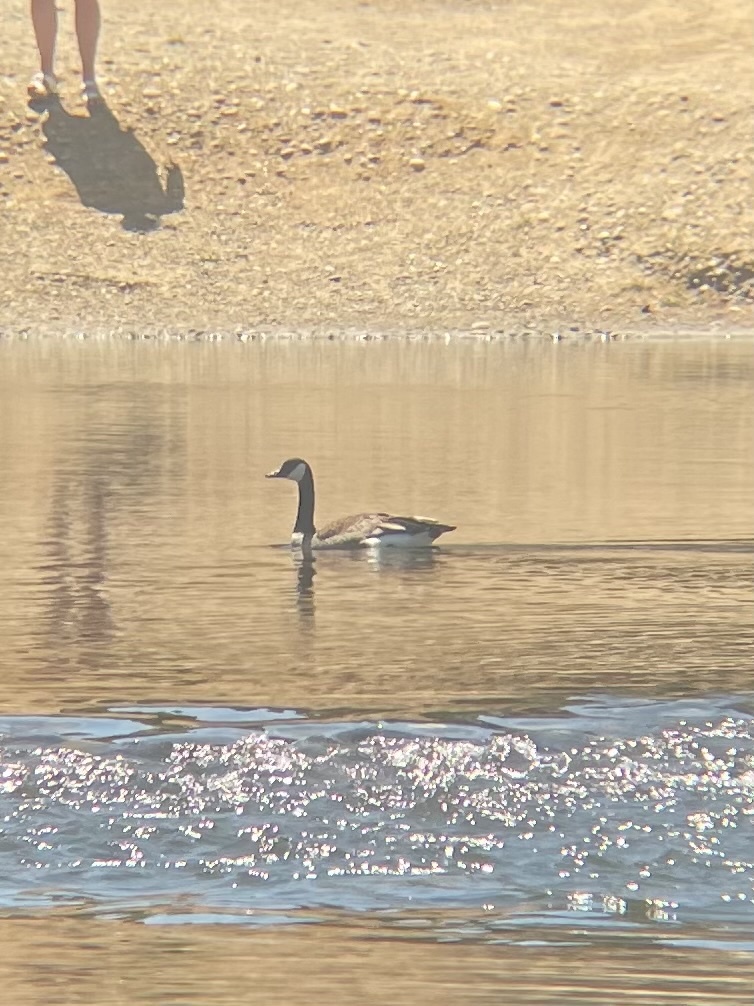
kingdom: Animalia
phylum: Chordata
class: Aves
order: Anseriformes
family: Anatidae
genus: Branta
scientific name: Branta canadensis
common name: Canada goose
